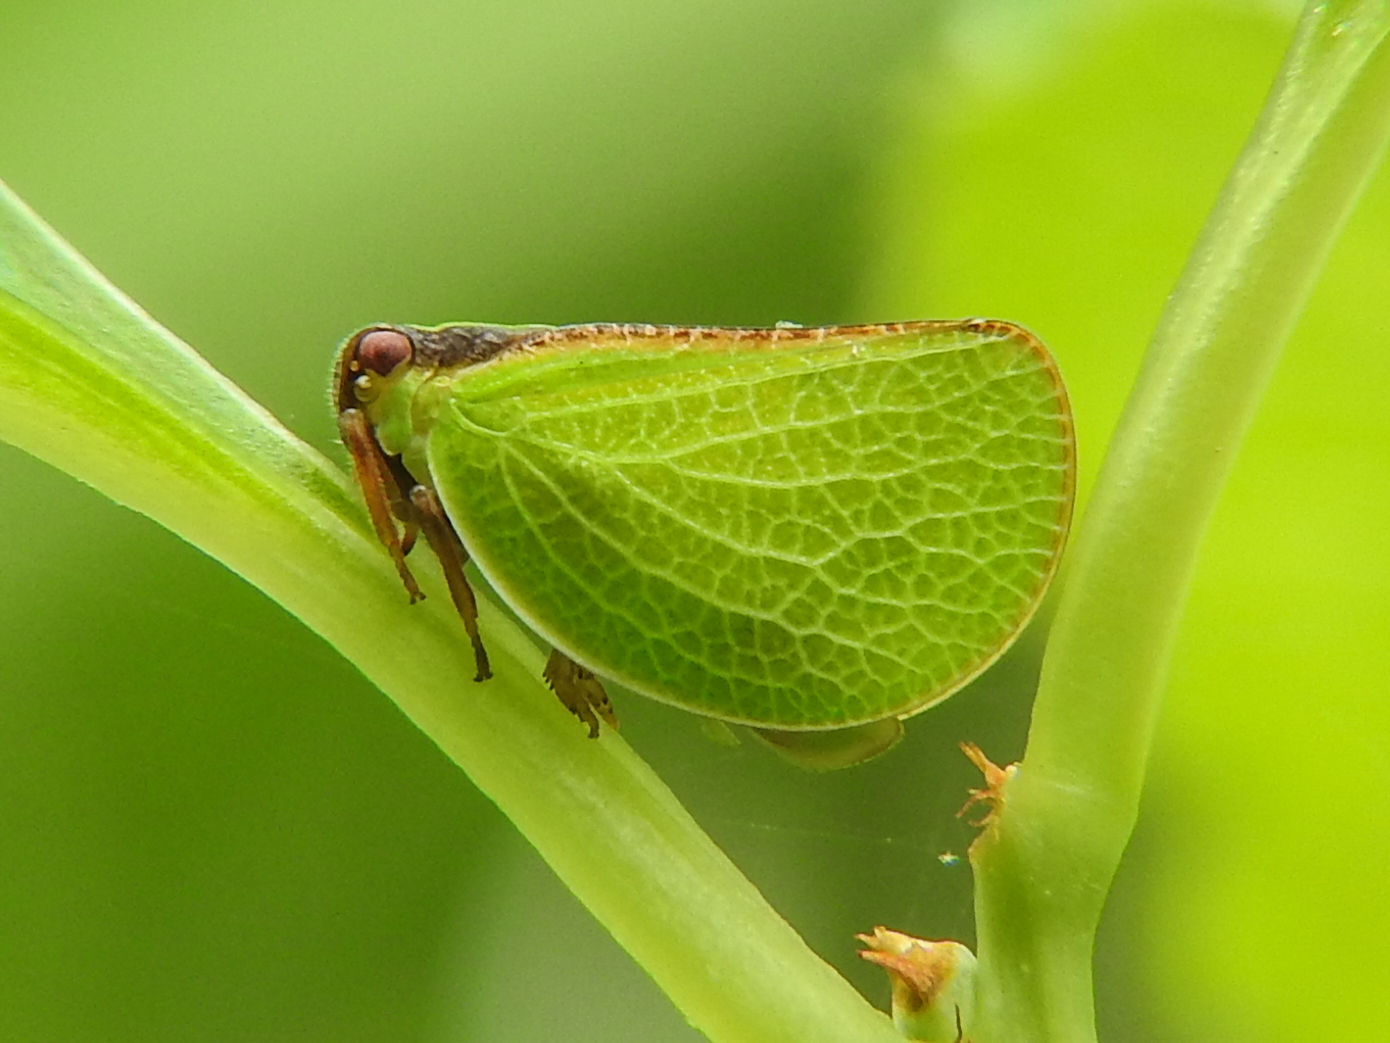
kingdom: Animalia
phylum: Arthropoda
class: Insecta
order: Hemiptera
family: Acanaloniidae
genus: Acanalonia
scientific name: Acanalonia bivittata
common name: Two-striped planthopper
